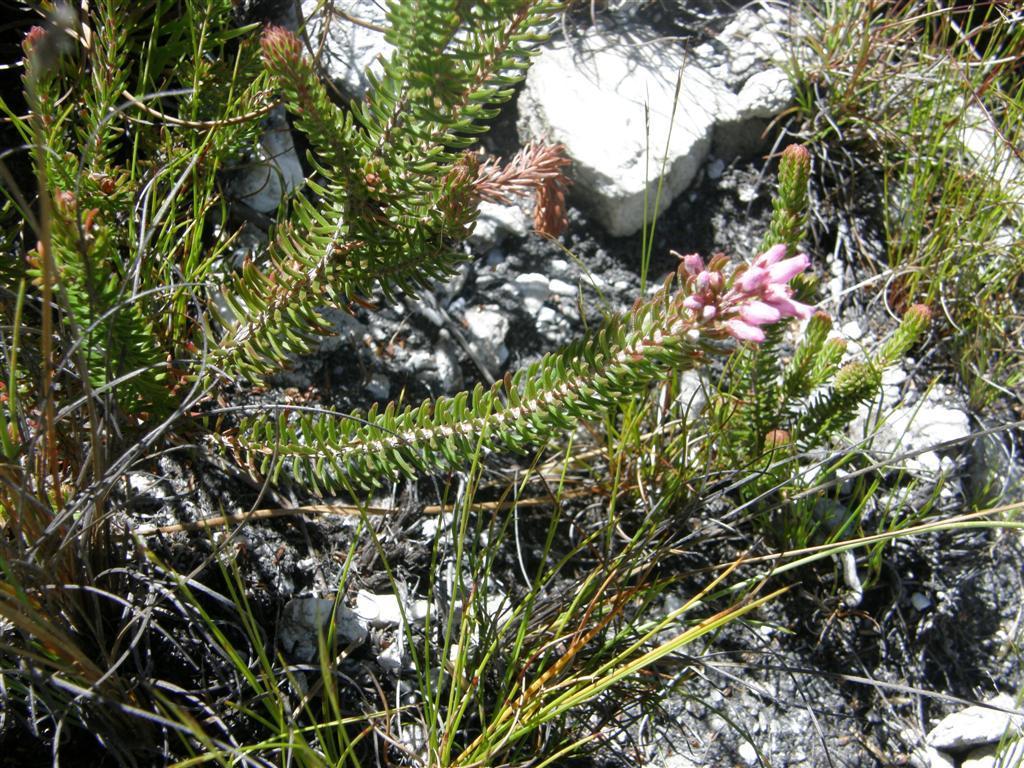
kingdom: Plantae
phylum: Tracheophyta
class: Magnoliopsida
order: Ericales
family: Ericaceae
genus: Erica
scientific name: Erica insolitanthera
